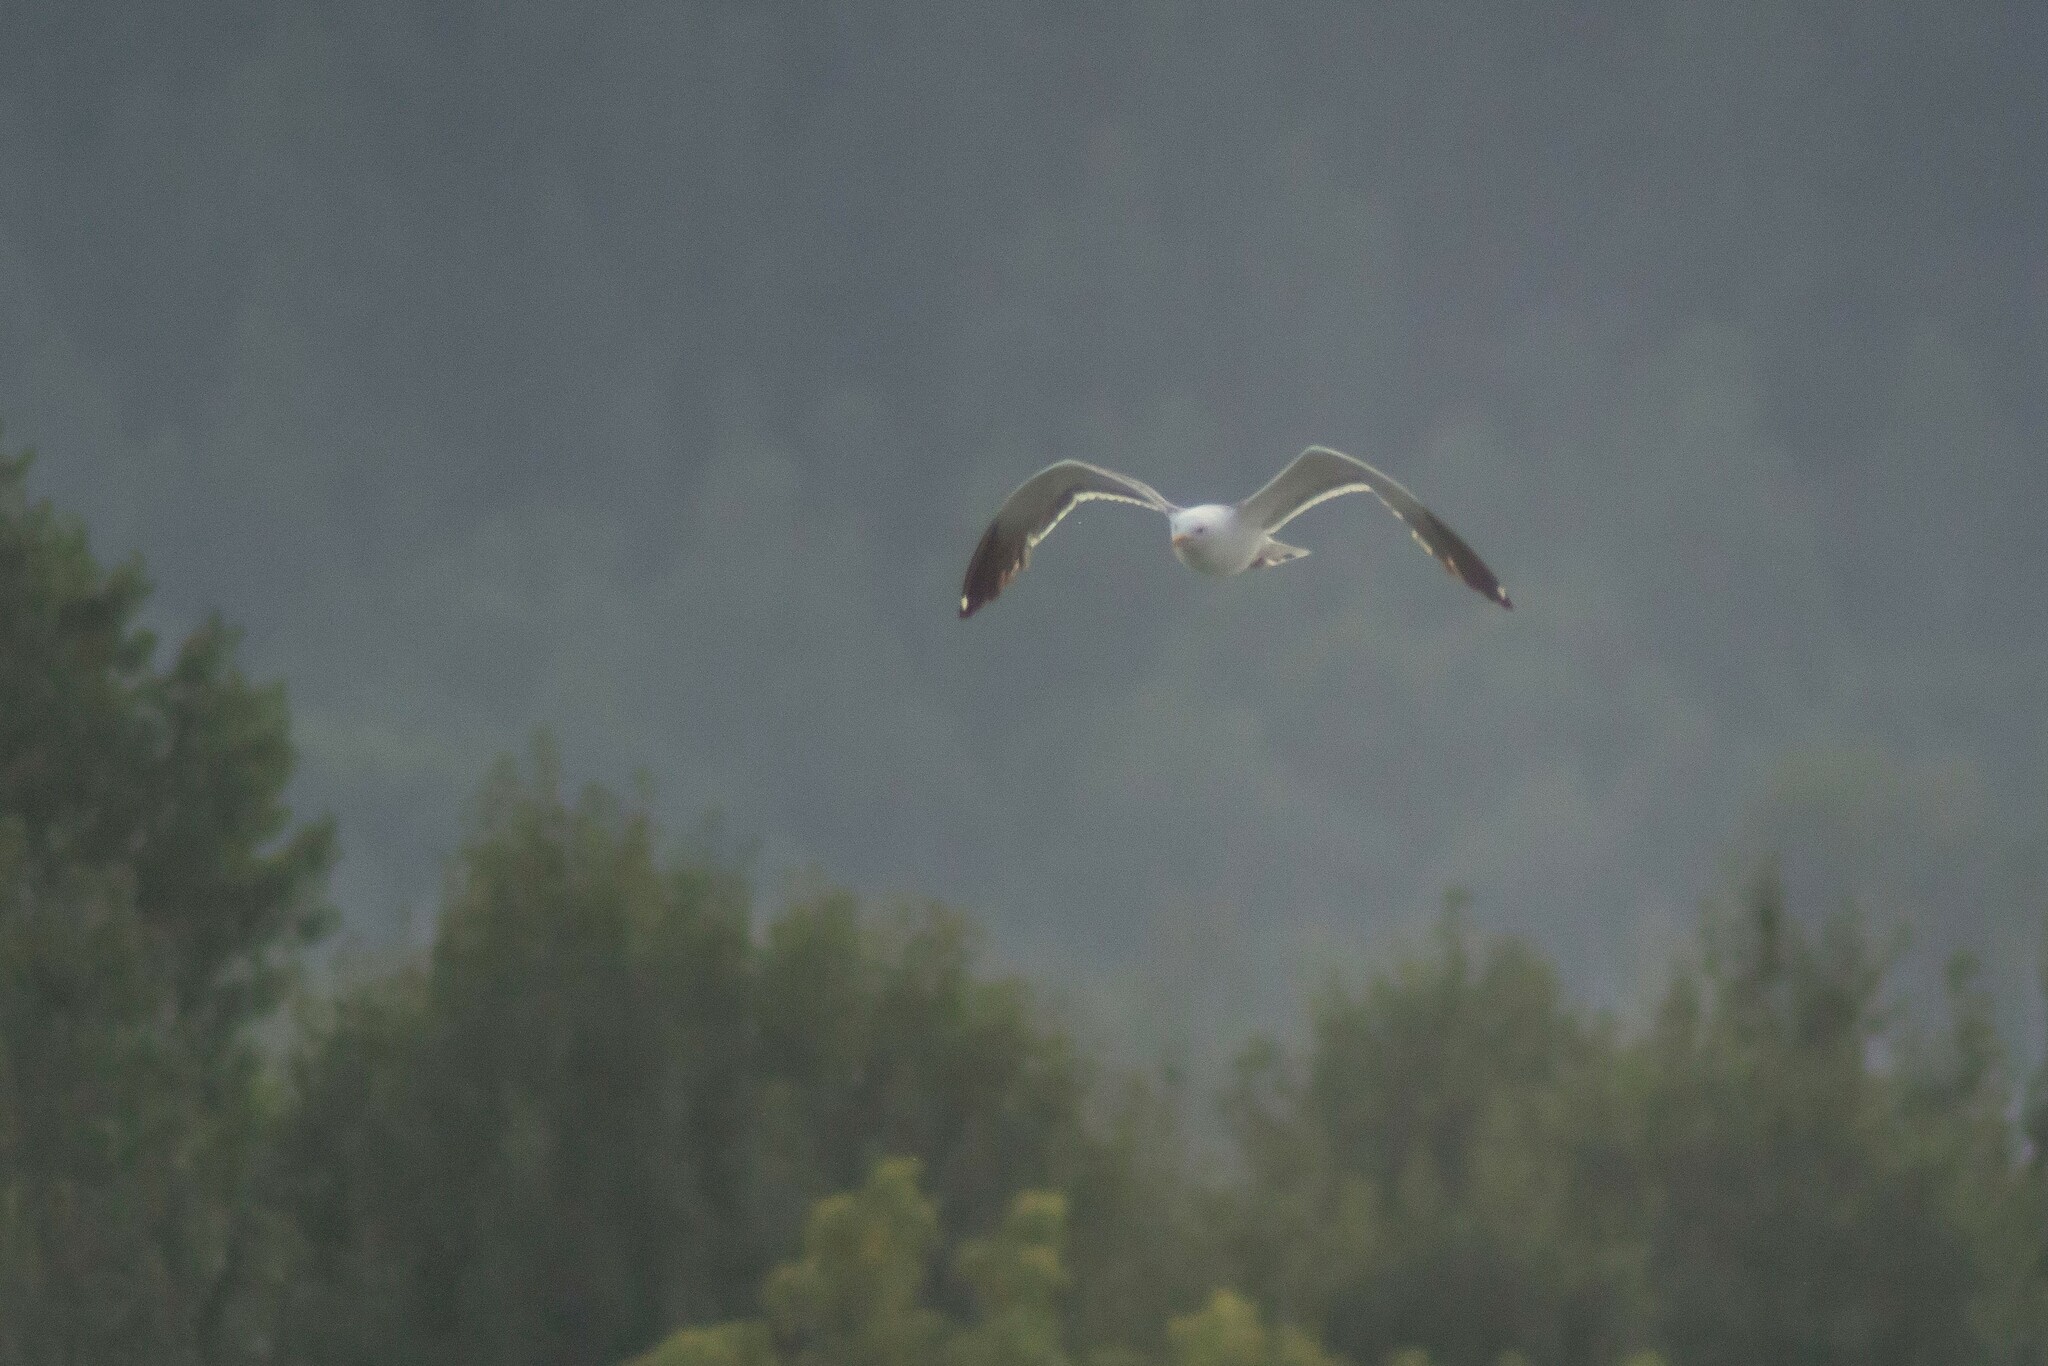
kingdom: Animalia
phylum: Chordata
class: Aves
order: Charadriiformes
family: Laridae
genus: Larus
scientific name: Larus fuscus
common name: Lesser black-backed gull
